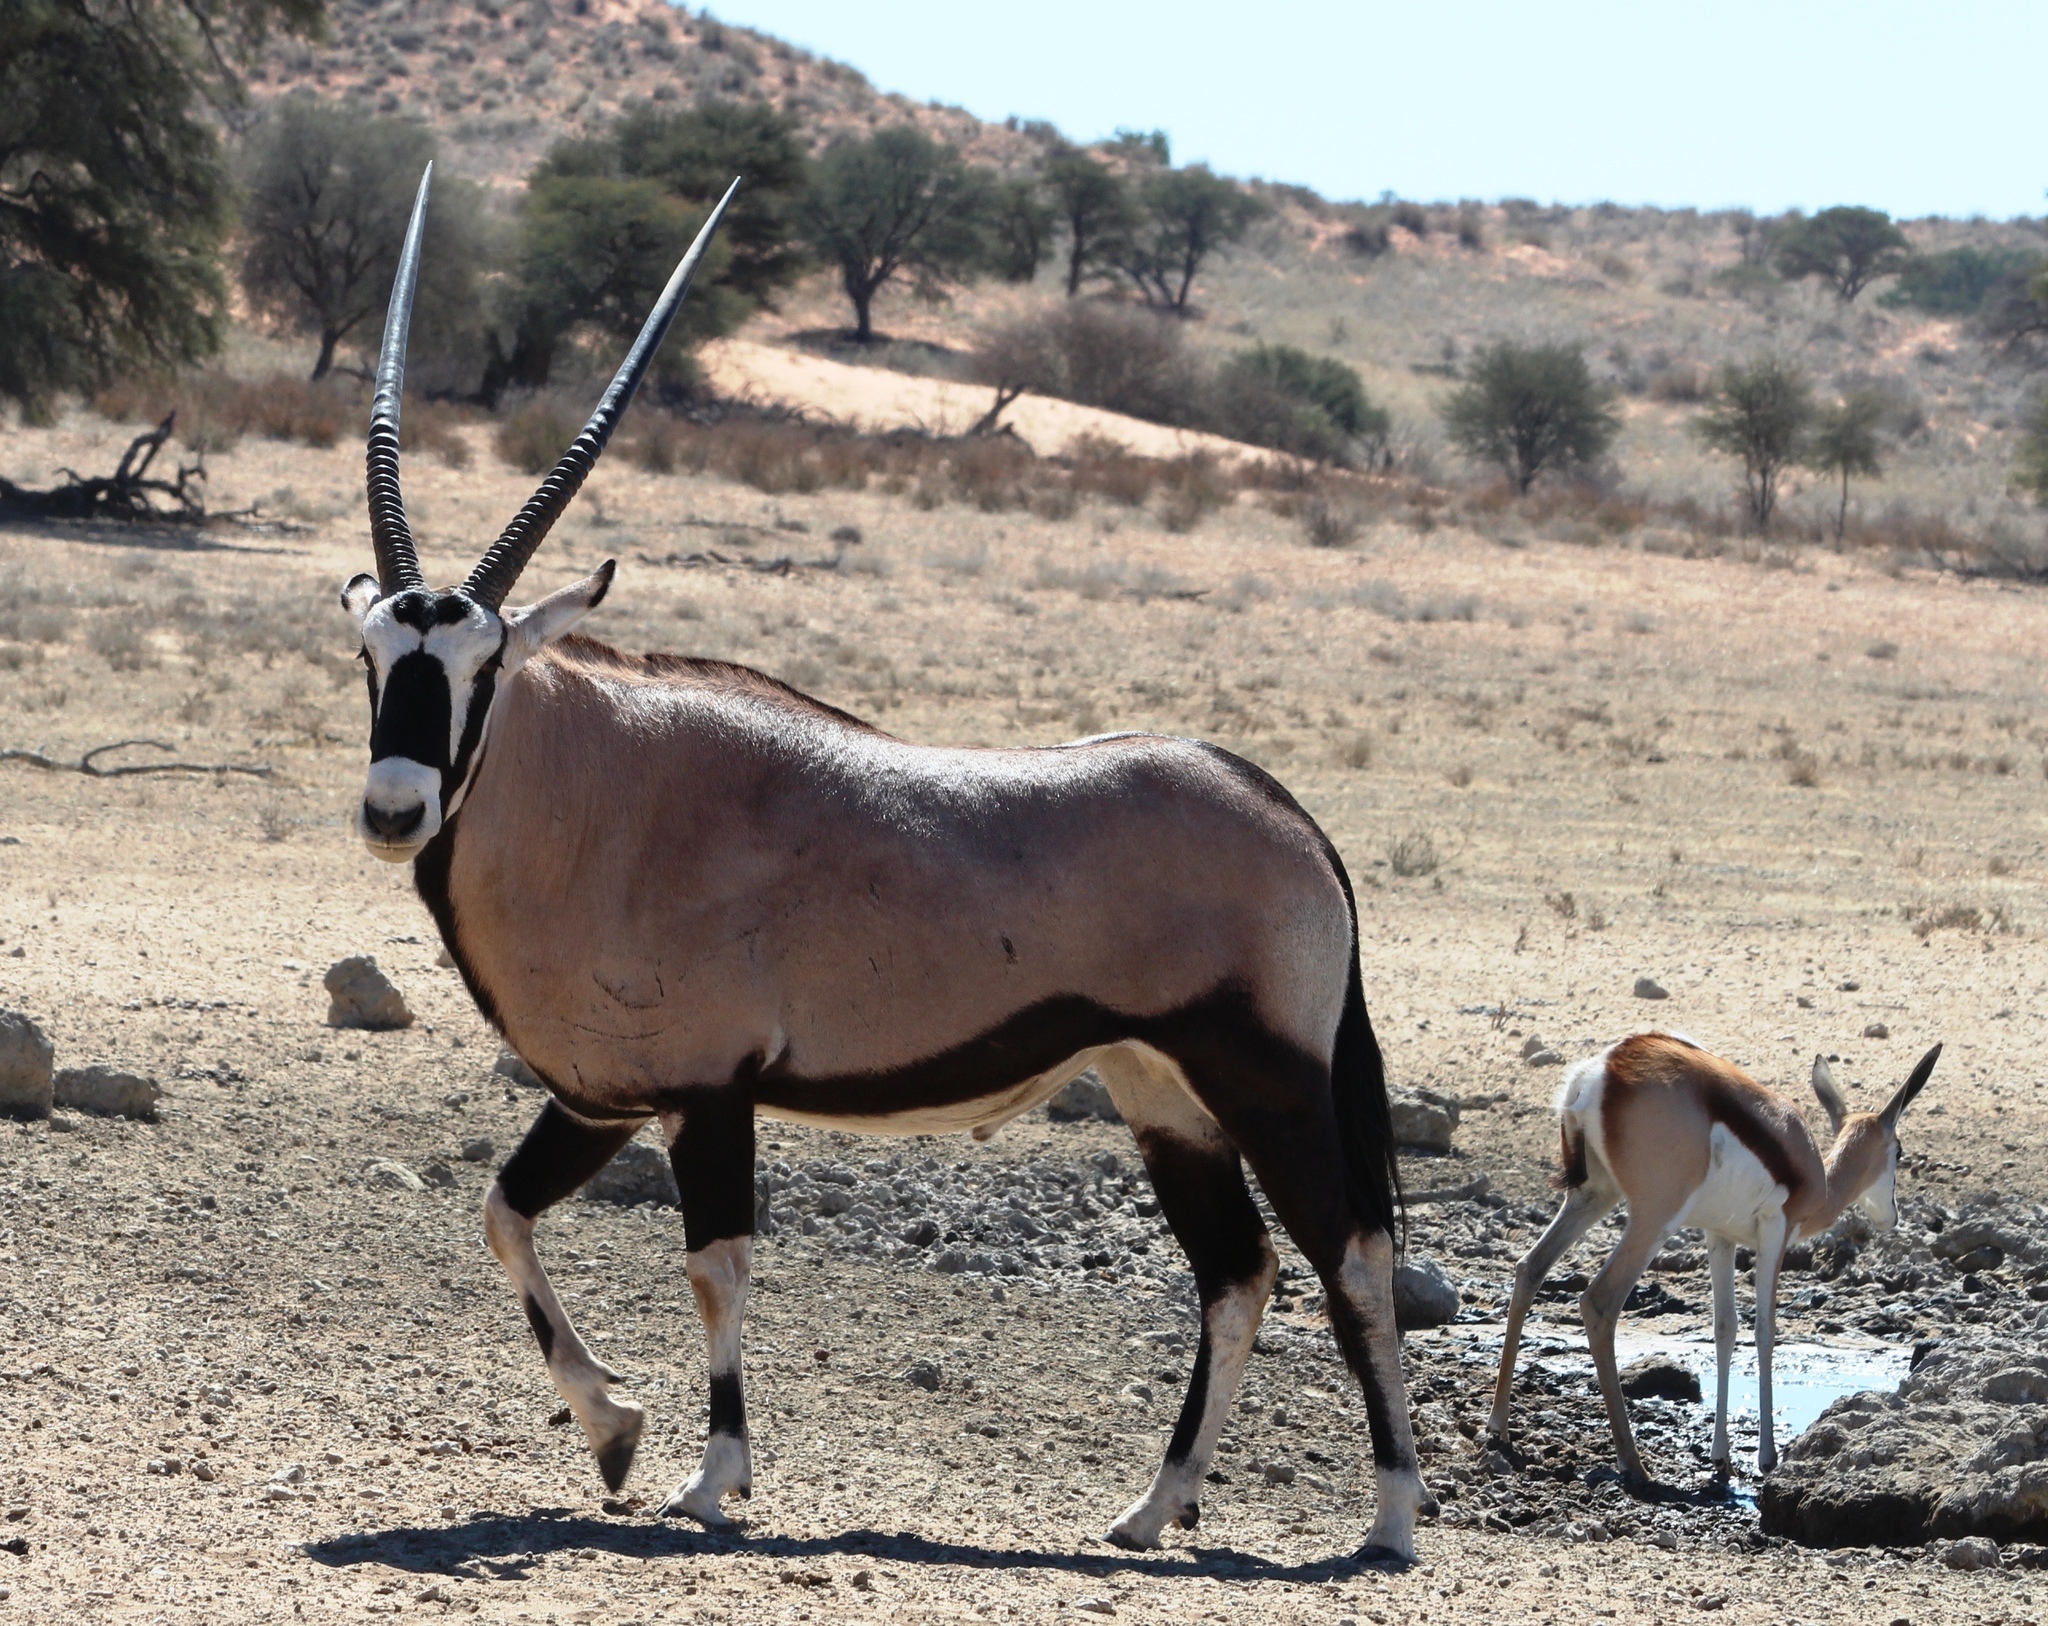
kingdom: Animalia
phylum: Chordata
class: Mammalia
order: Artiodactyla
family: Bovidae
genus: Oryx
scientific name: Oryx gazella
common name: Gemsbok
